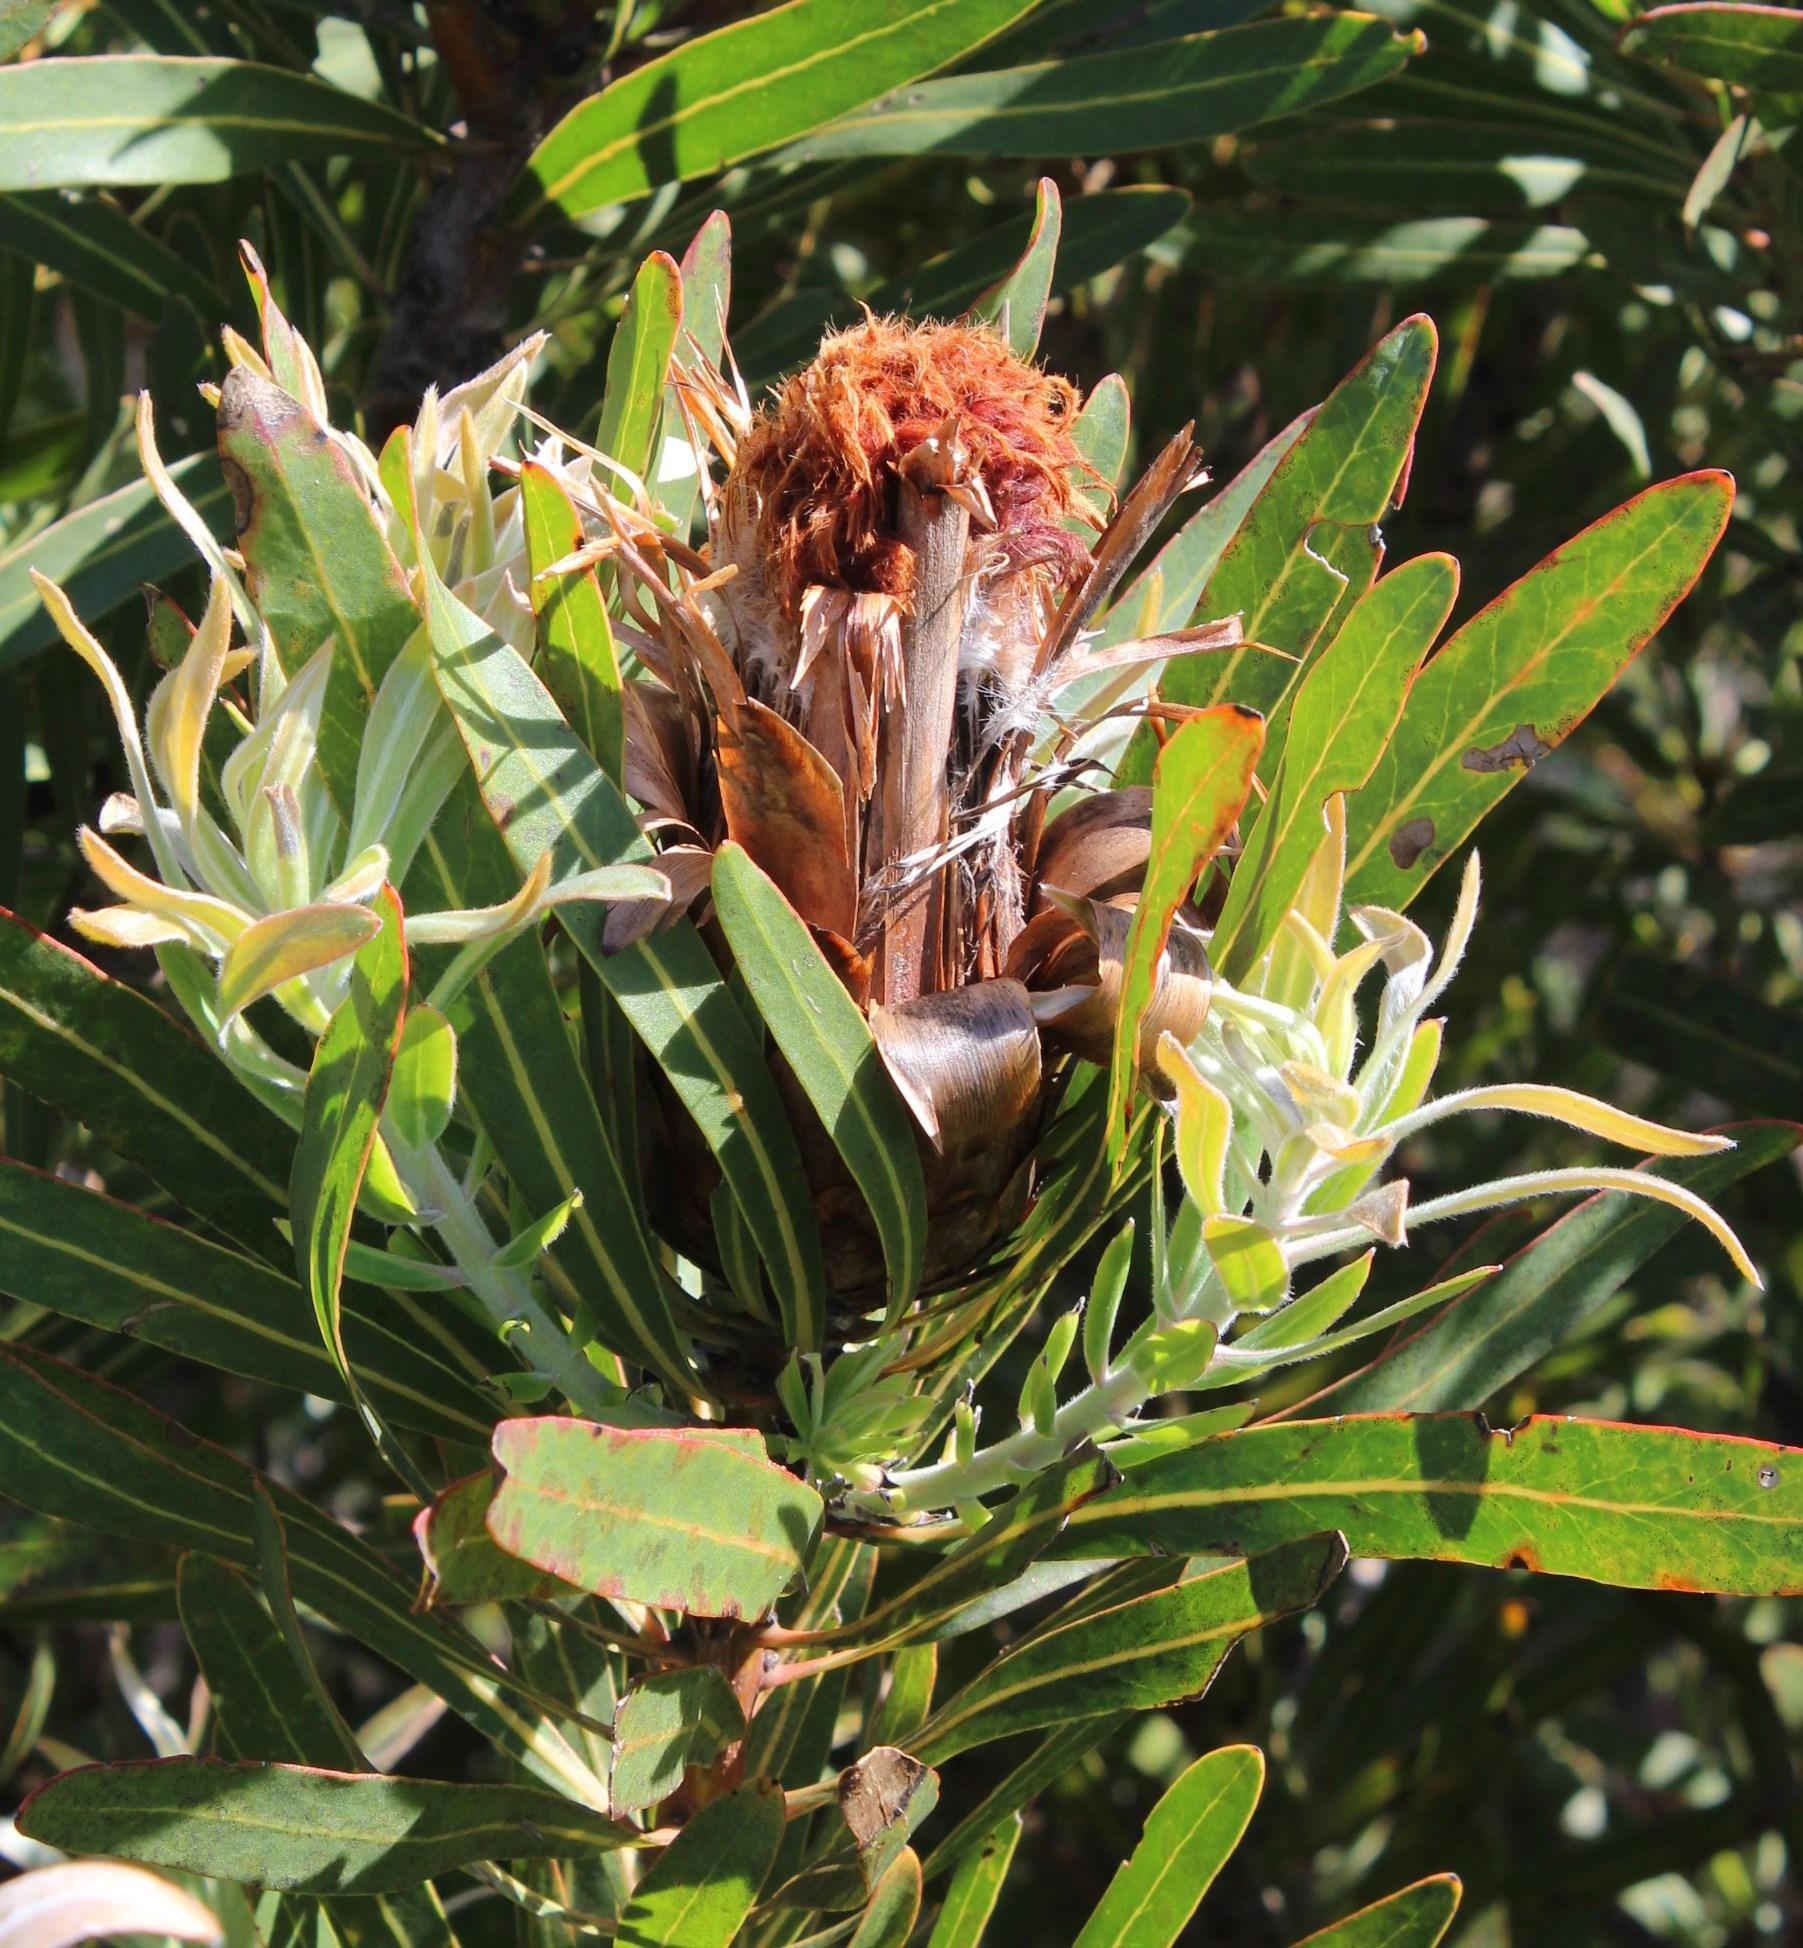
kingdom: Plantae
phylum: Tracheophyta
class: Magnoliopsida
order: Proteales
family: Proteaceae
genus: Protea
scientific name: Protea longifolia
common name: Long-leaf sugarbush
